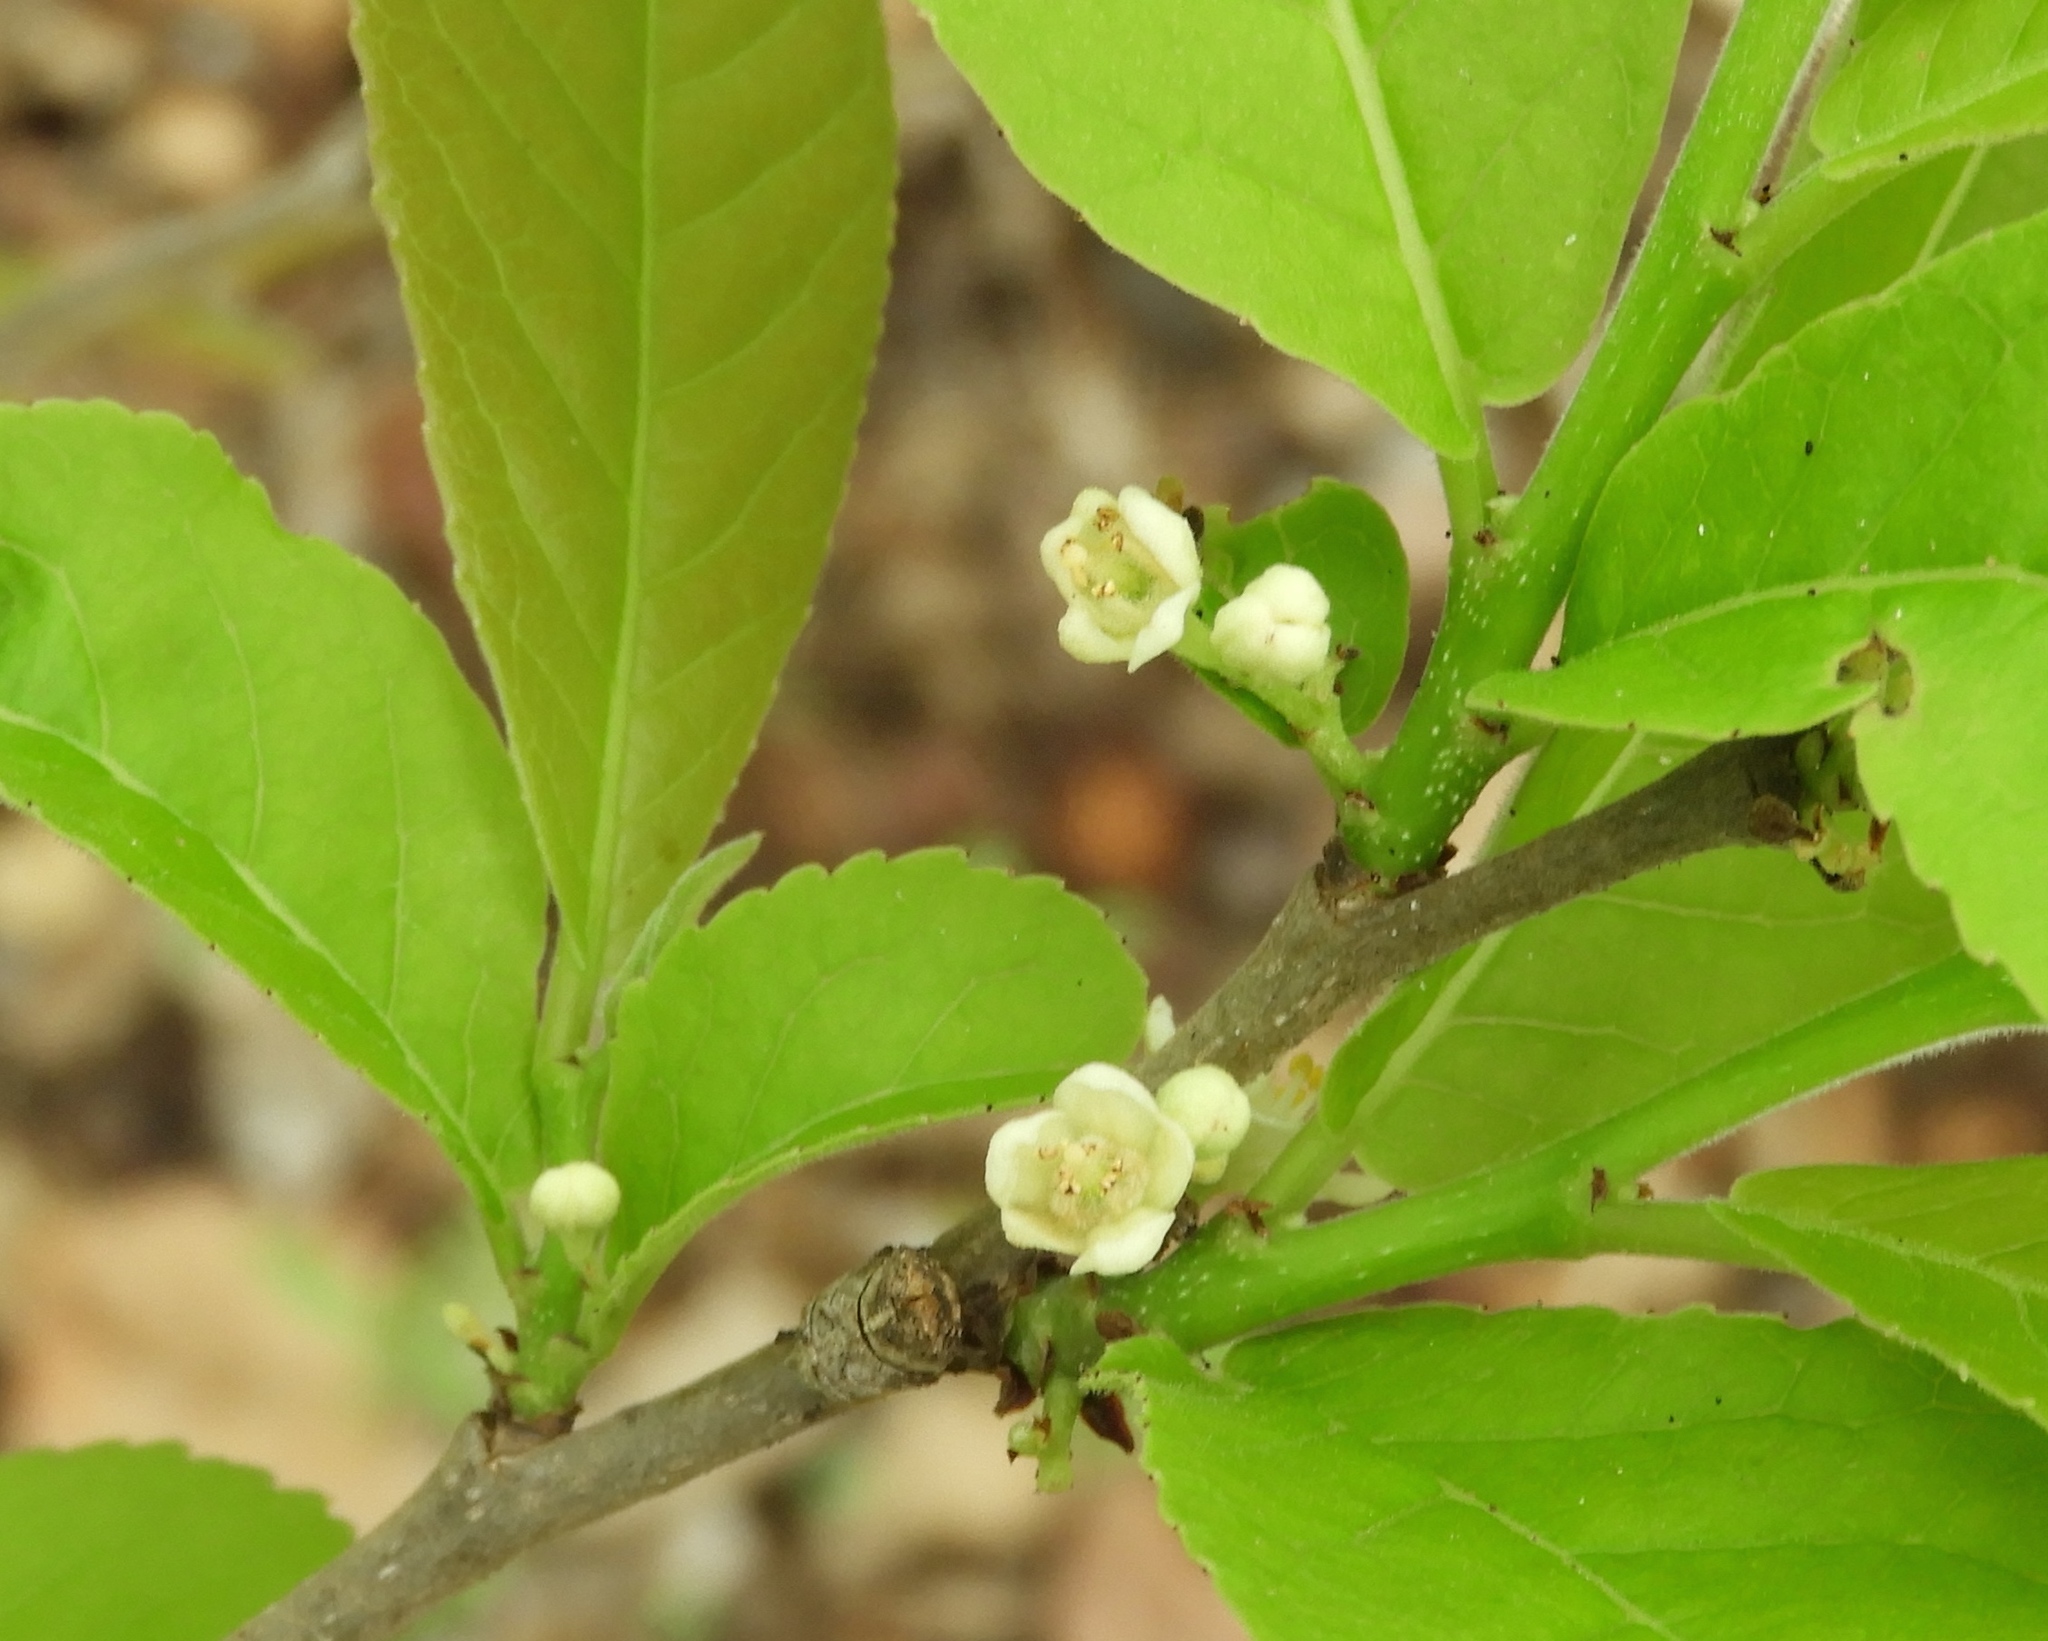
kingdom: Plantae
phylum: Tracheophyta
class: Magnoliopsida
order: Malpighiales
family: Salicaceae
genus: Casearia
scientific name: Casearia corymbosa
